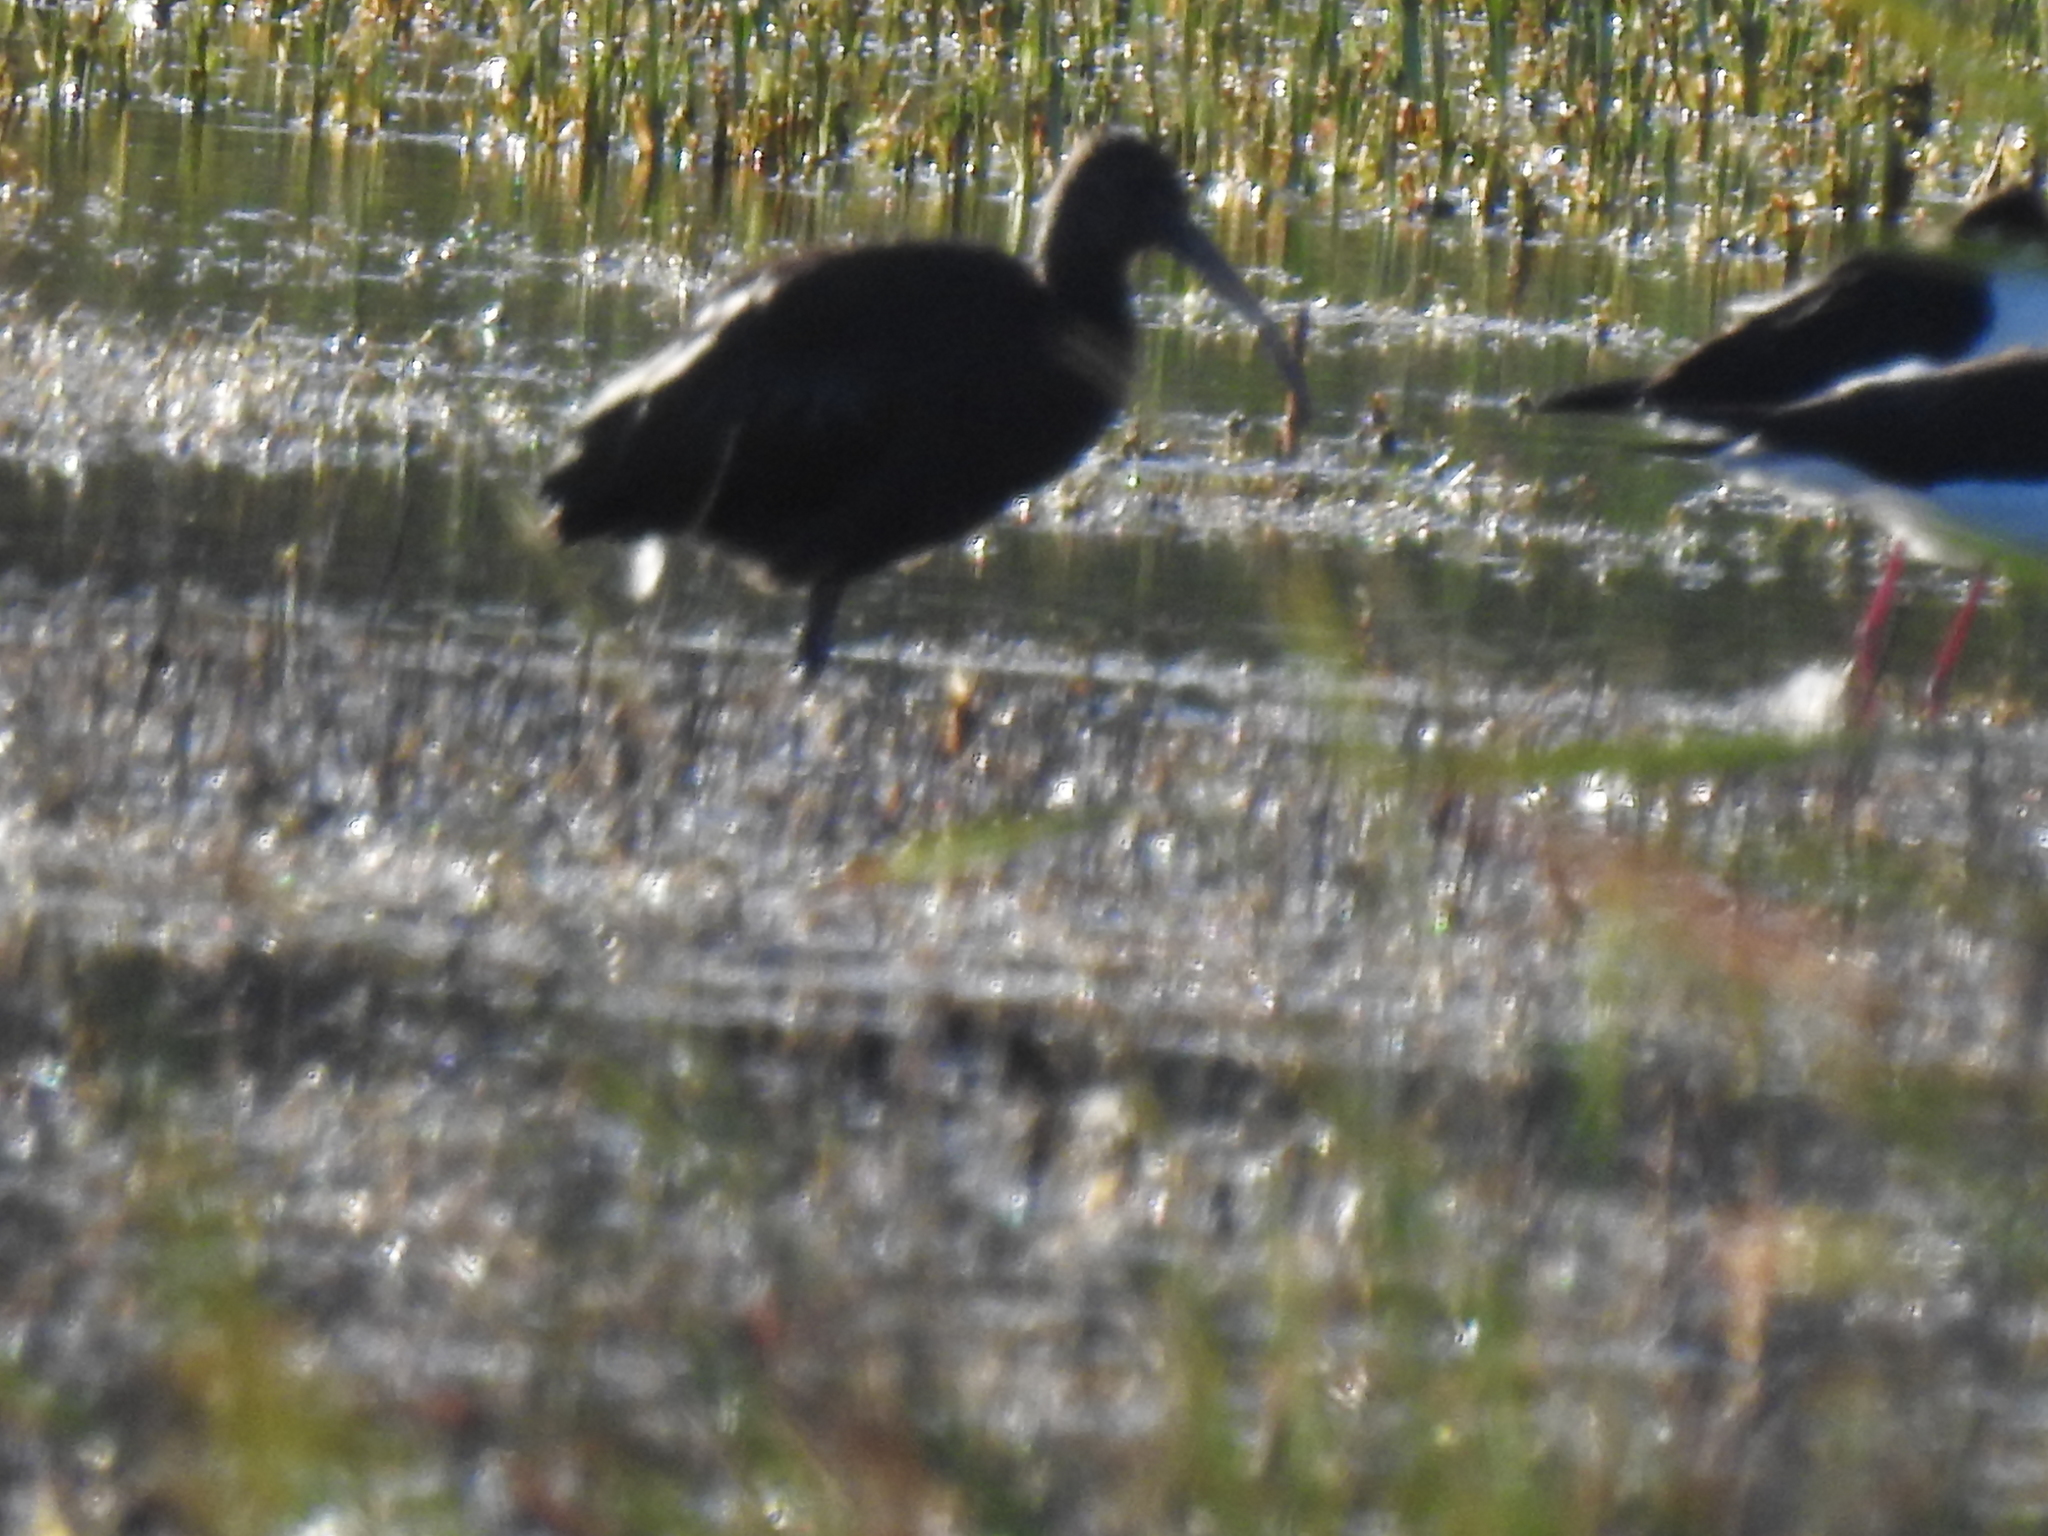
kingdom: Animalia
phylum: Chordata
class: Aves
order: Pelecaniformes
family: Threskiornithidae
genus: Plegadis
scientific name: Plegadis chihi
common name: White-faced ibis
